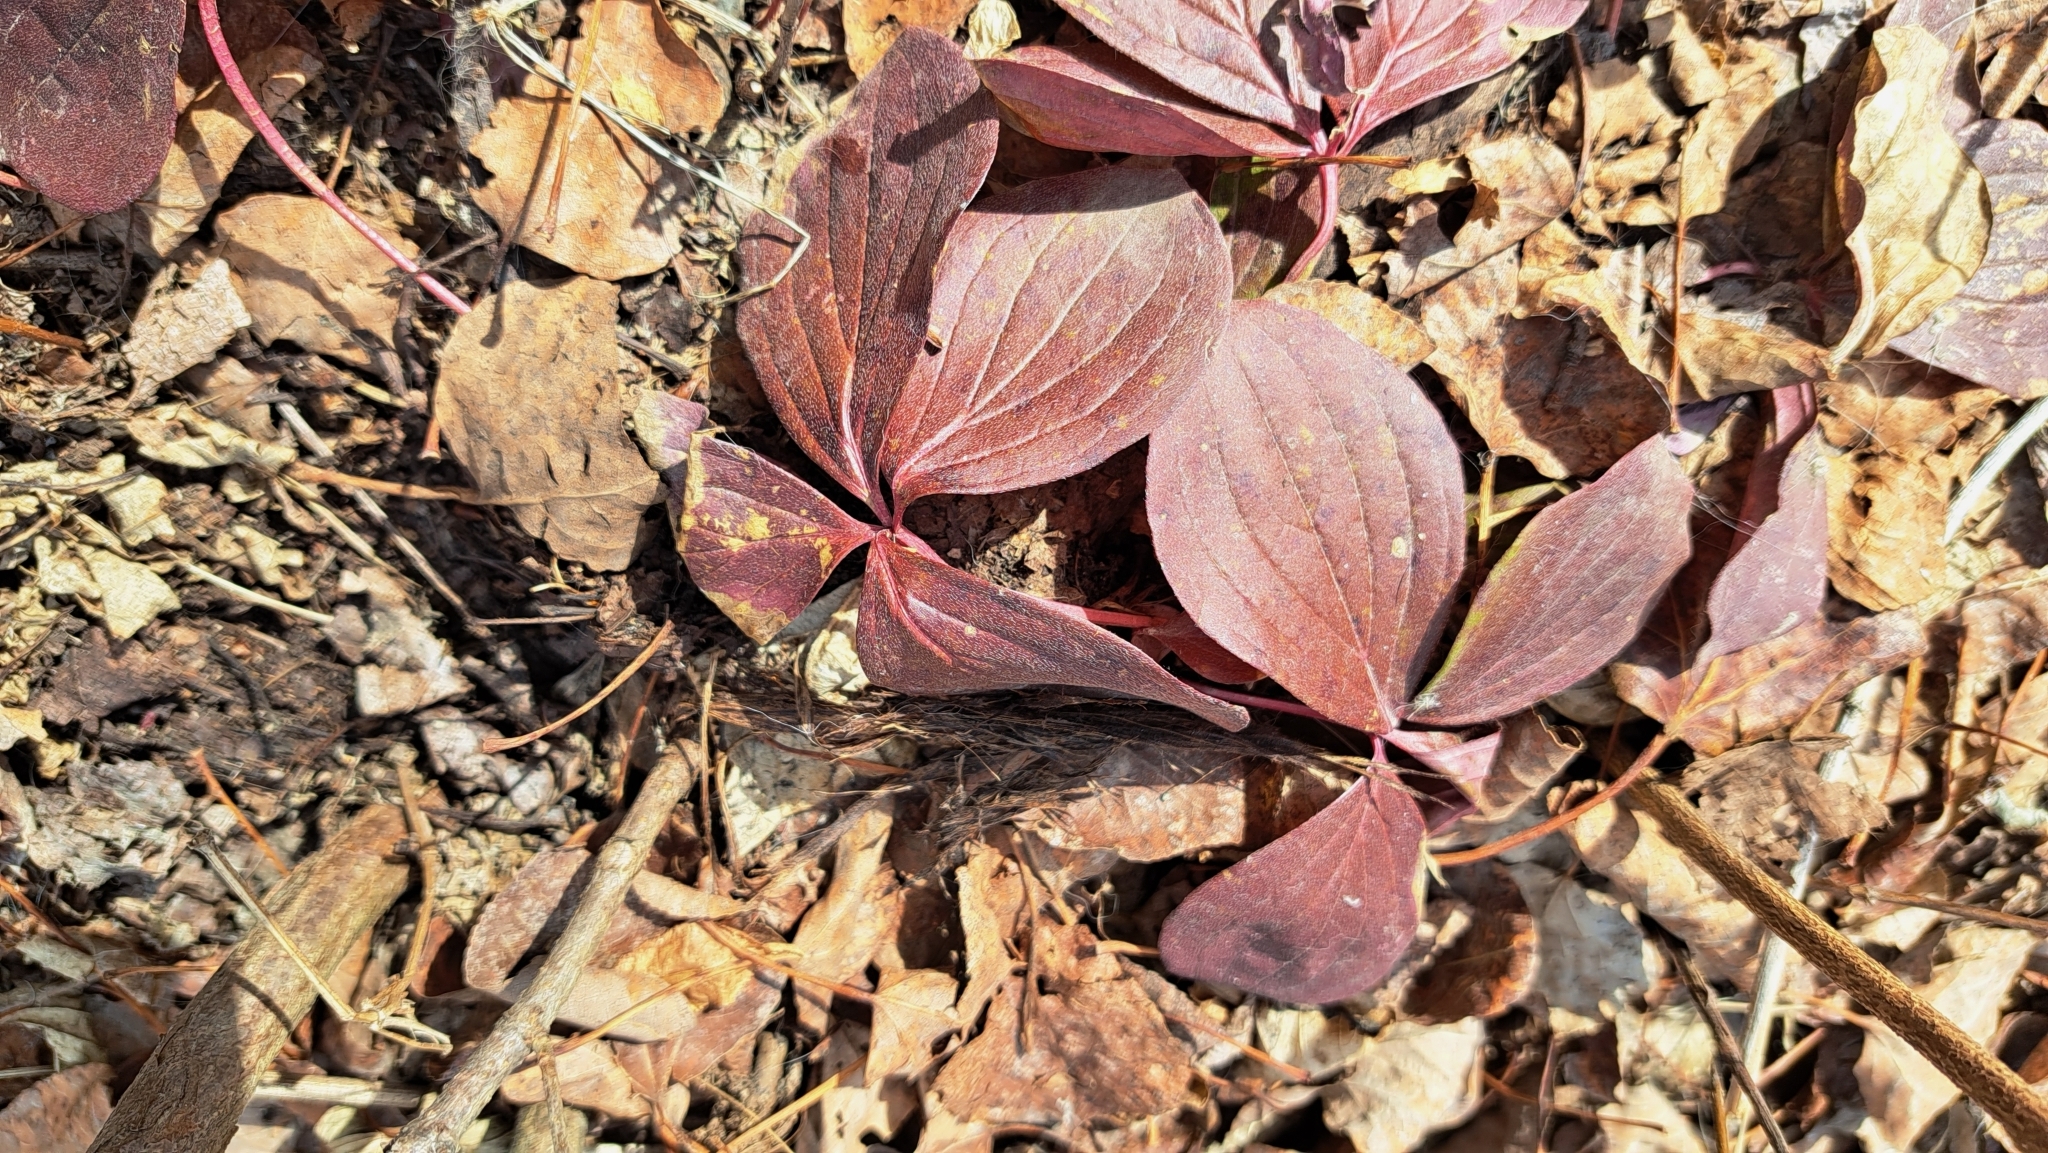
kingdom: Plantae
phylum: Tracheophyta
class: Magnoliopsida
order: Cornales
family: Cornaceae
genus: Cornus
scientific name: Cornus canadensis
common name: Creeping dogwood
